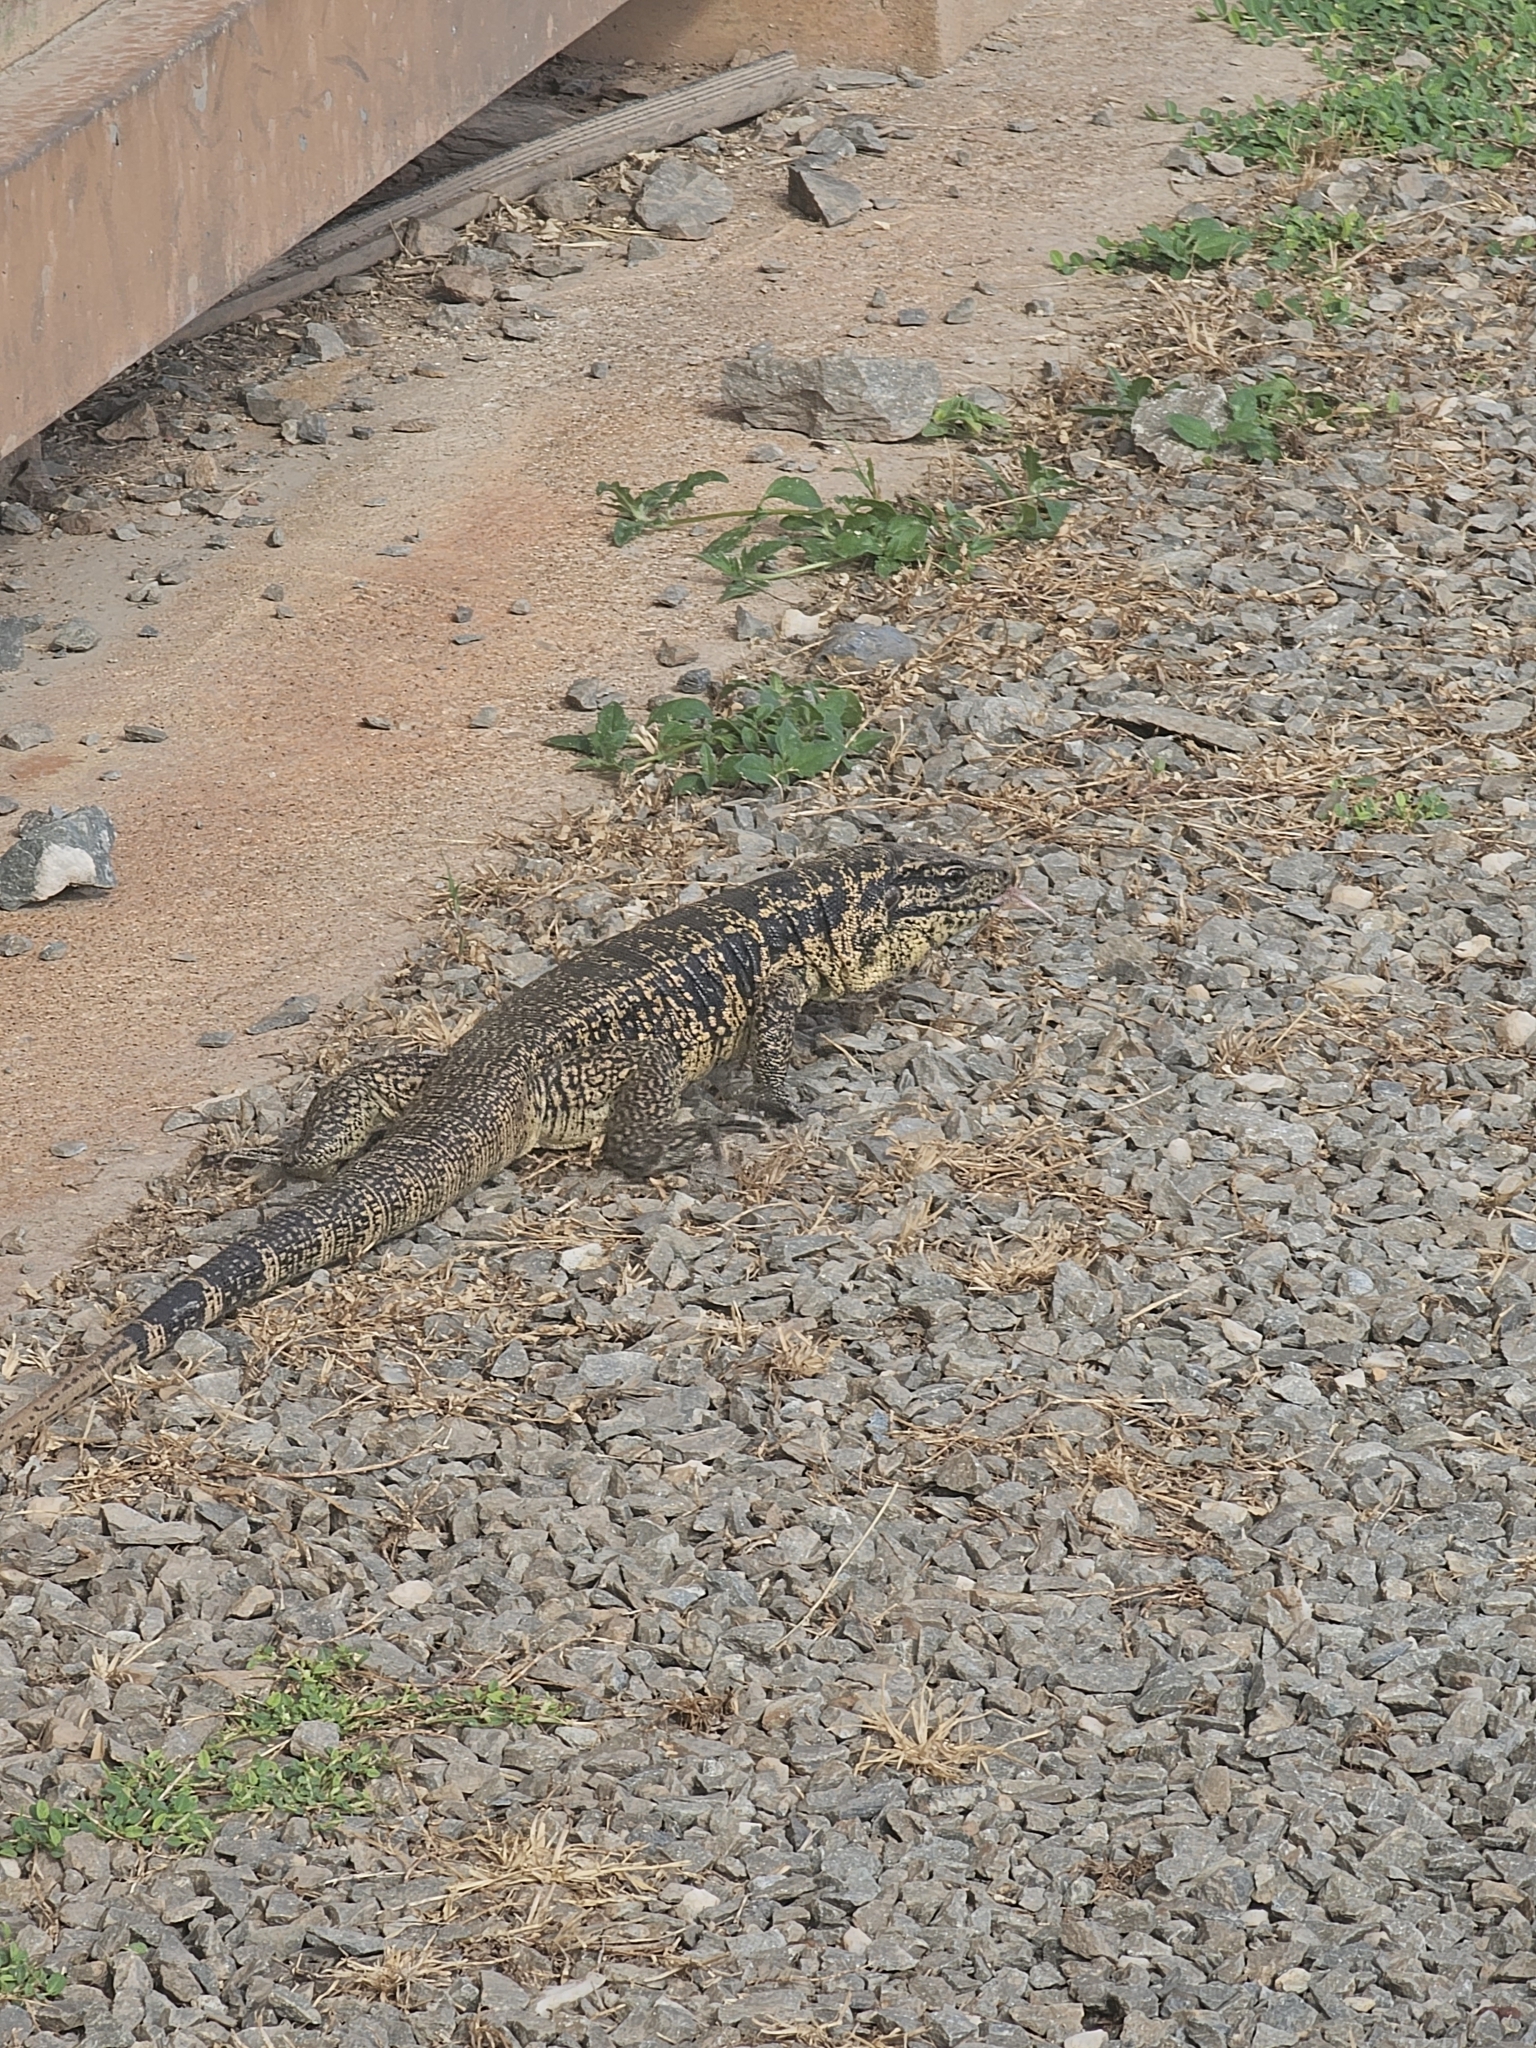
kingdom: Animalia
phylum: Chordata
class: Squamata
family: Teiidae
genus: Tupinambis
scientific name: Tupinambis teguixin
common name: Black tegu
